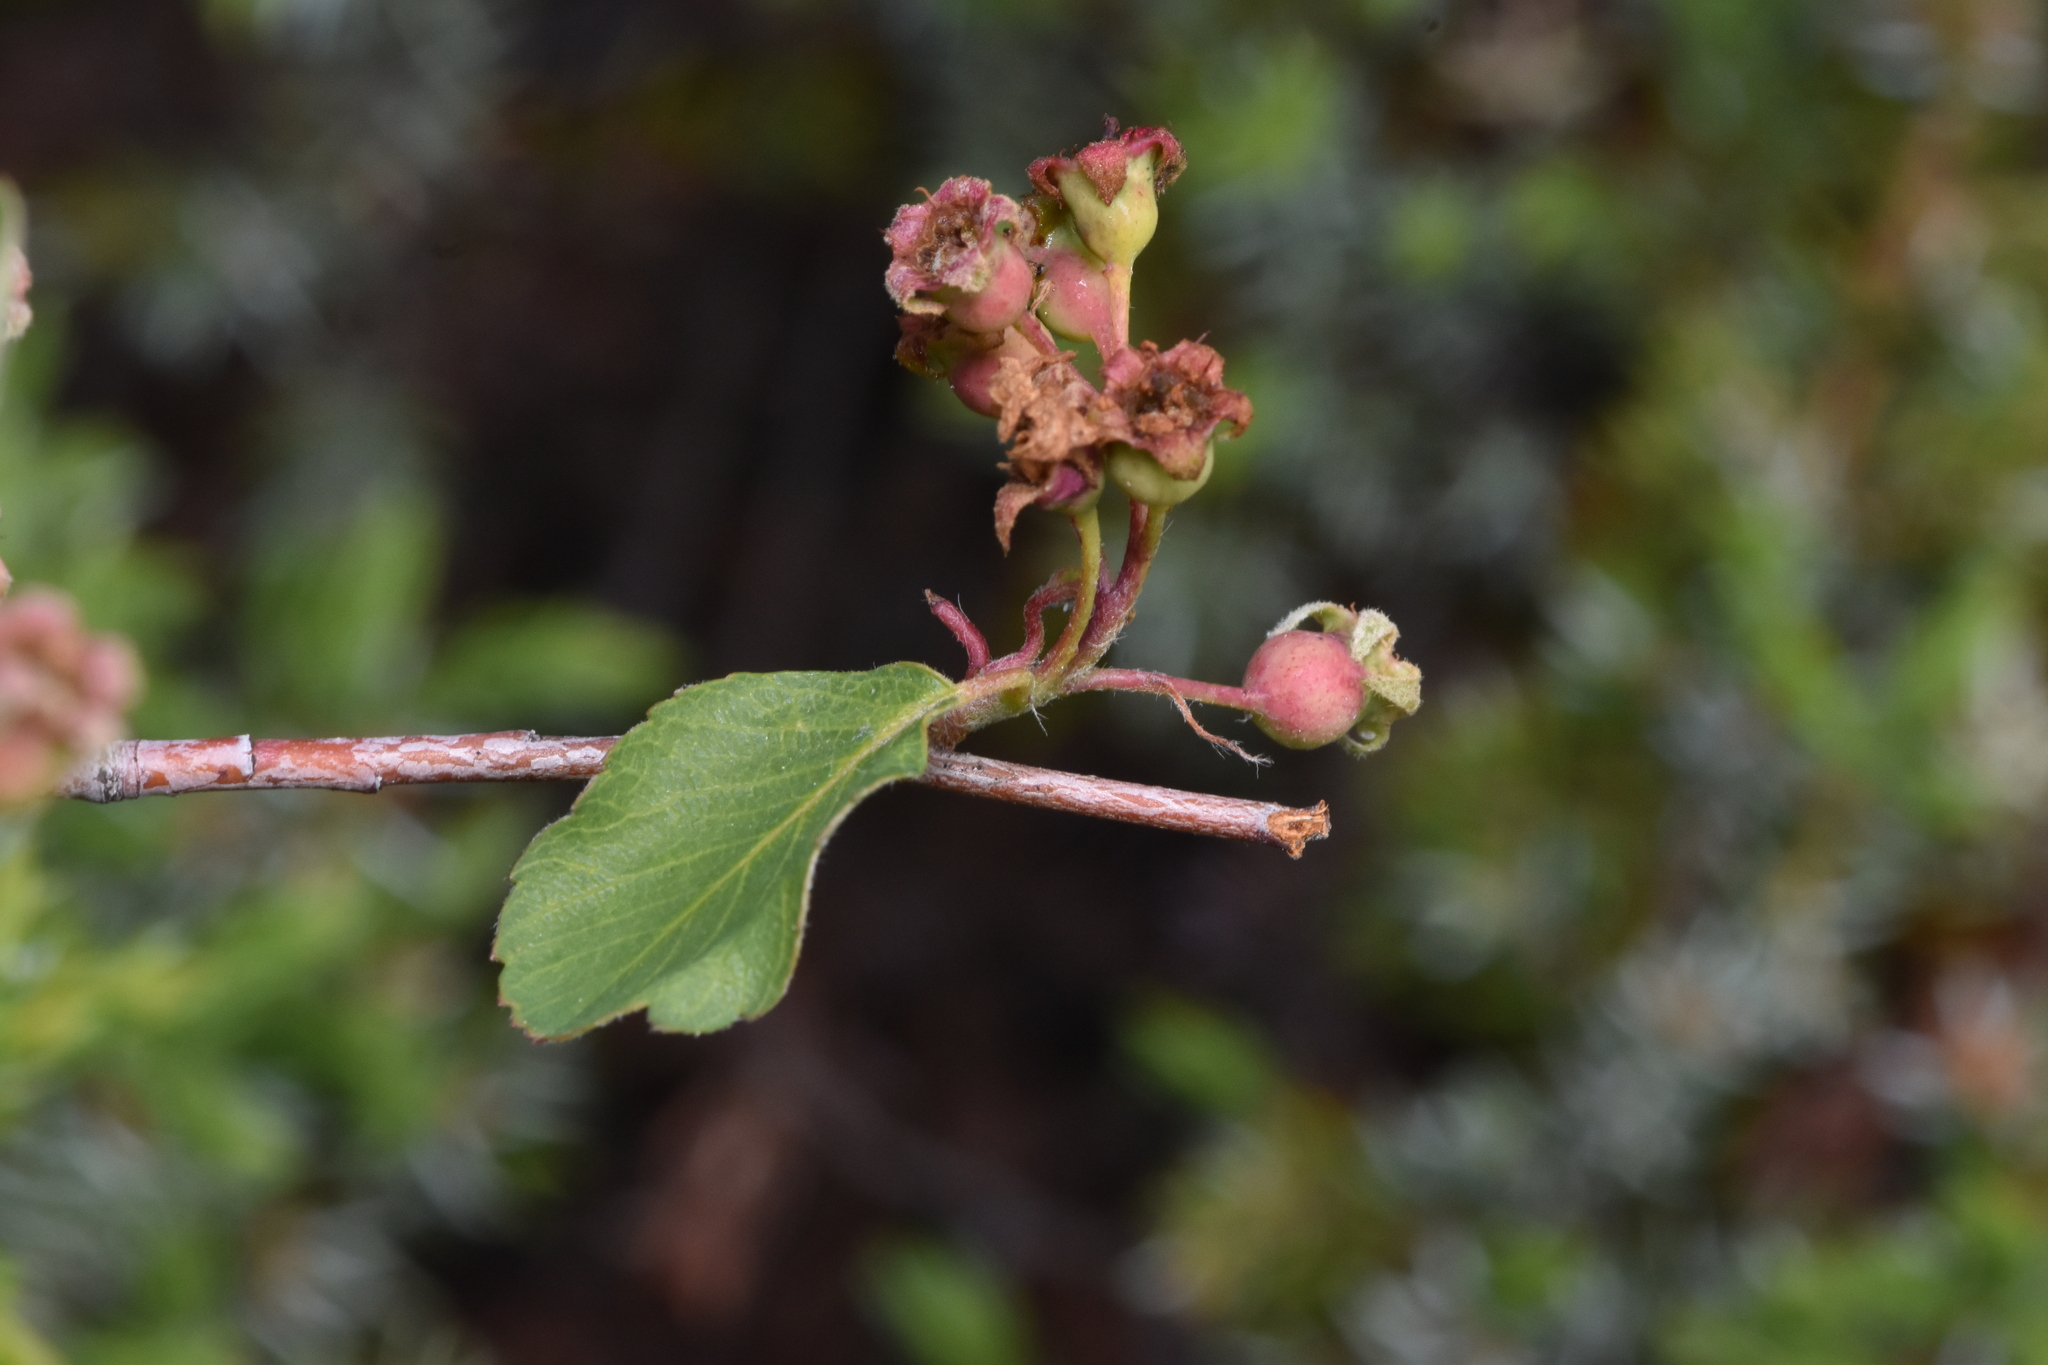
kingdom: Plantae
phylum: Tracheophyta
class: Magnoliopsida
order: Rosales
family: Rosaceae
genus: Amelanchier
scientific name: Amelanchier alnifolia
